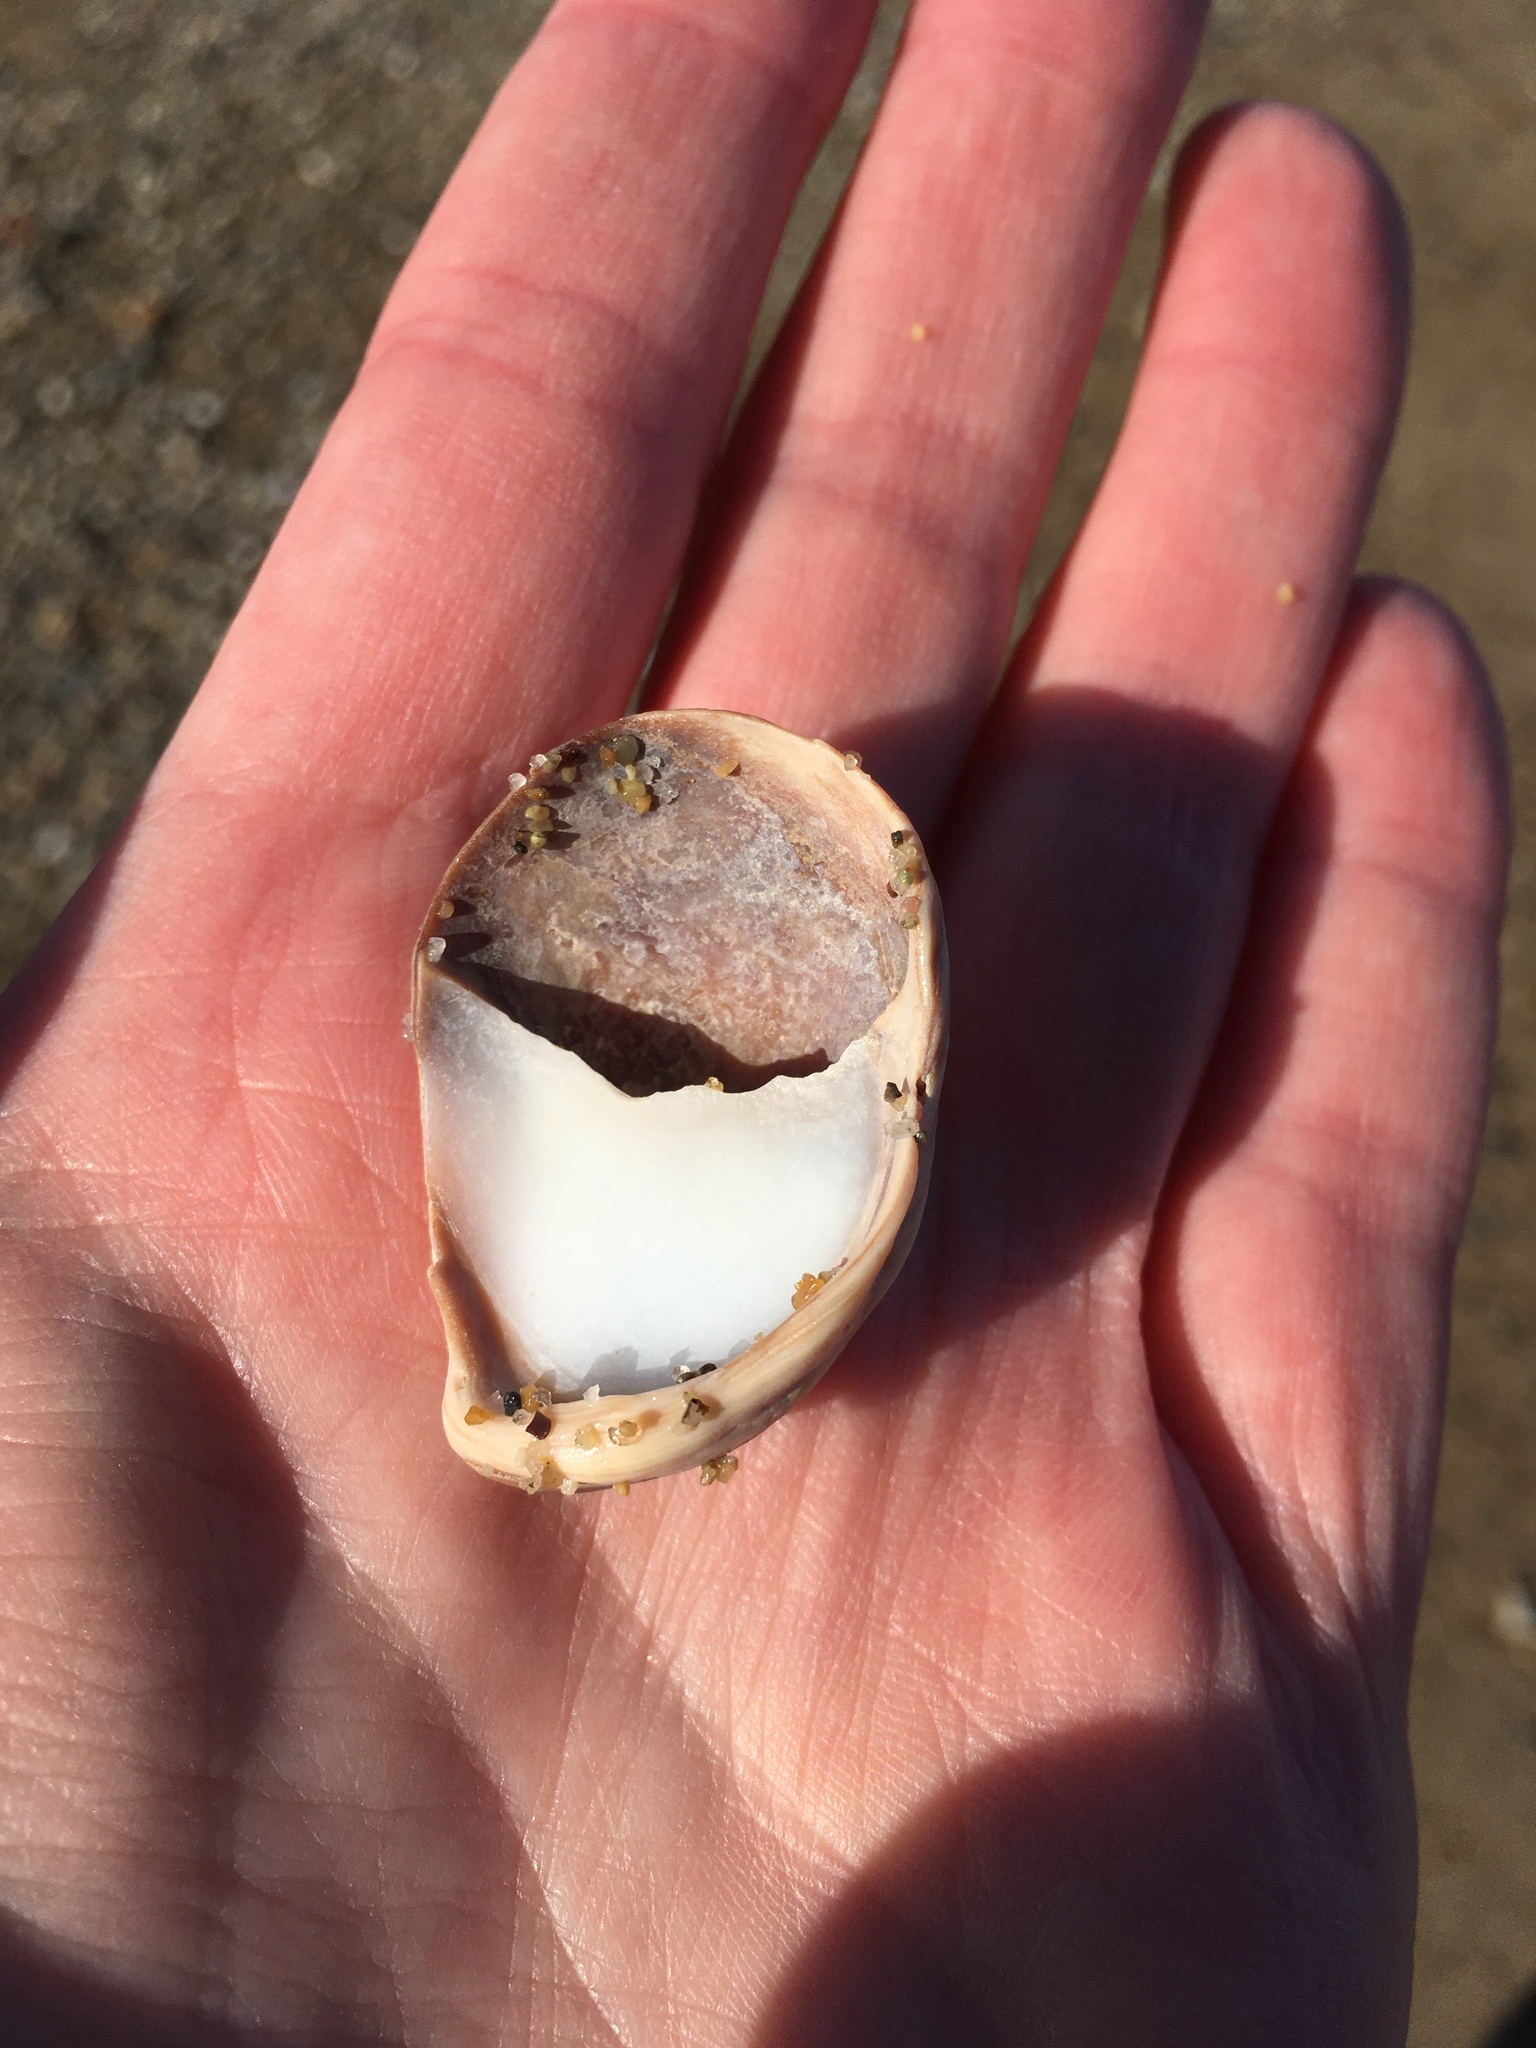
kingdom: Animalia
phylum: Mollusca
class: Gastropoda
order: Littorinimorpha
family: Calyptraeidae
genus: Crepidula
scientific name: Crepidula fornicata
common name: Slipper limpet
